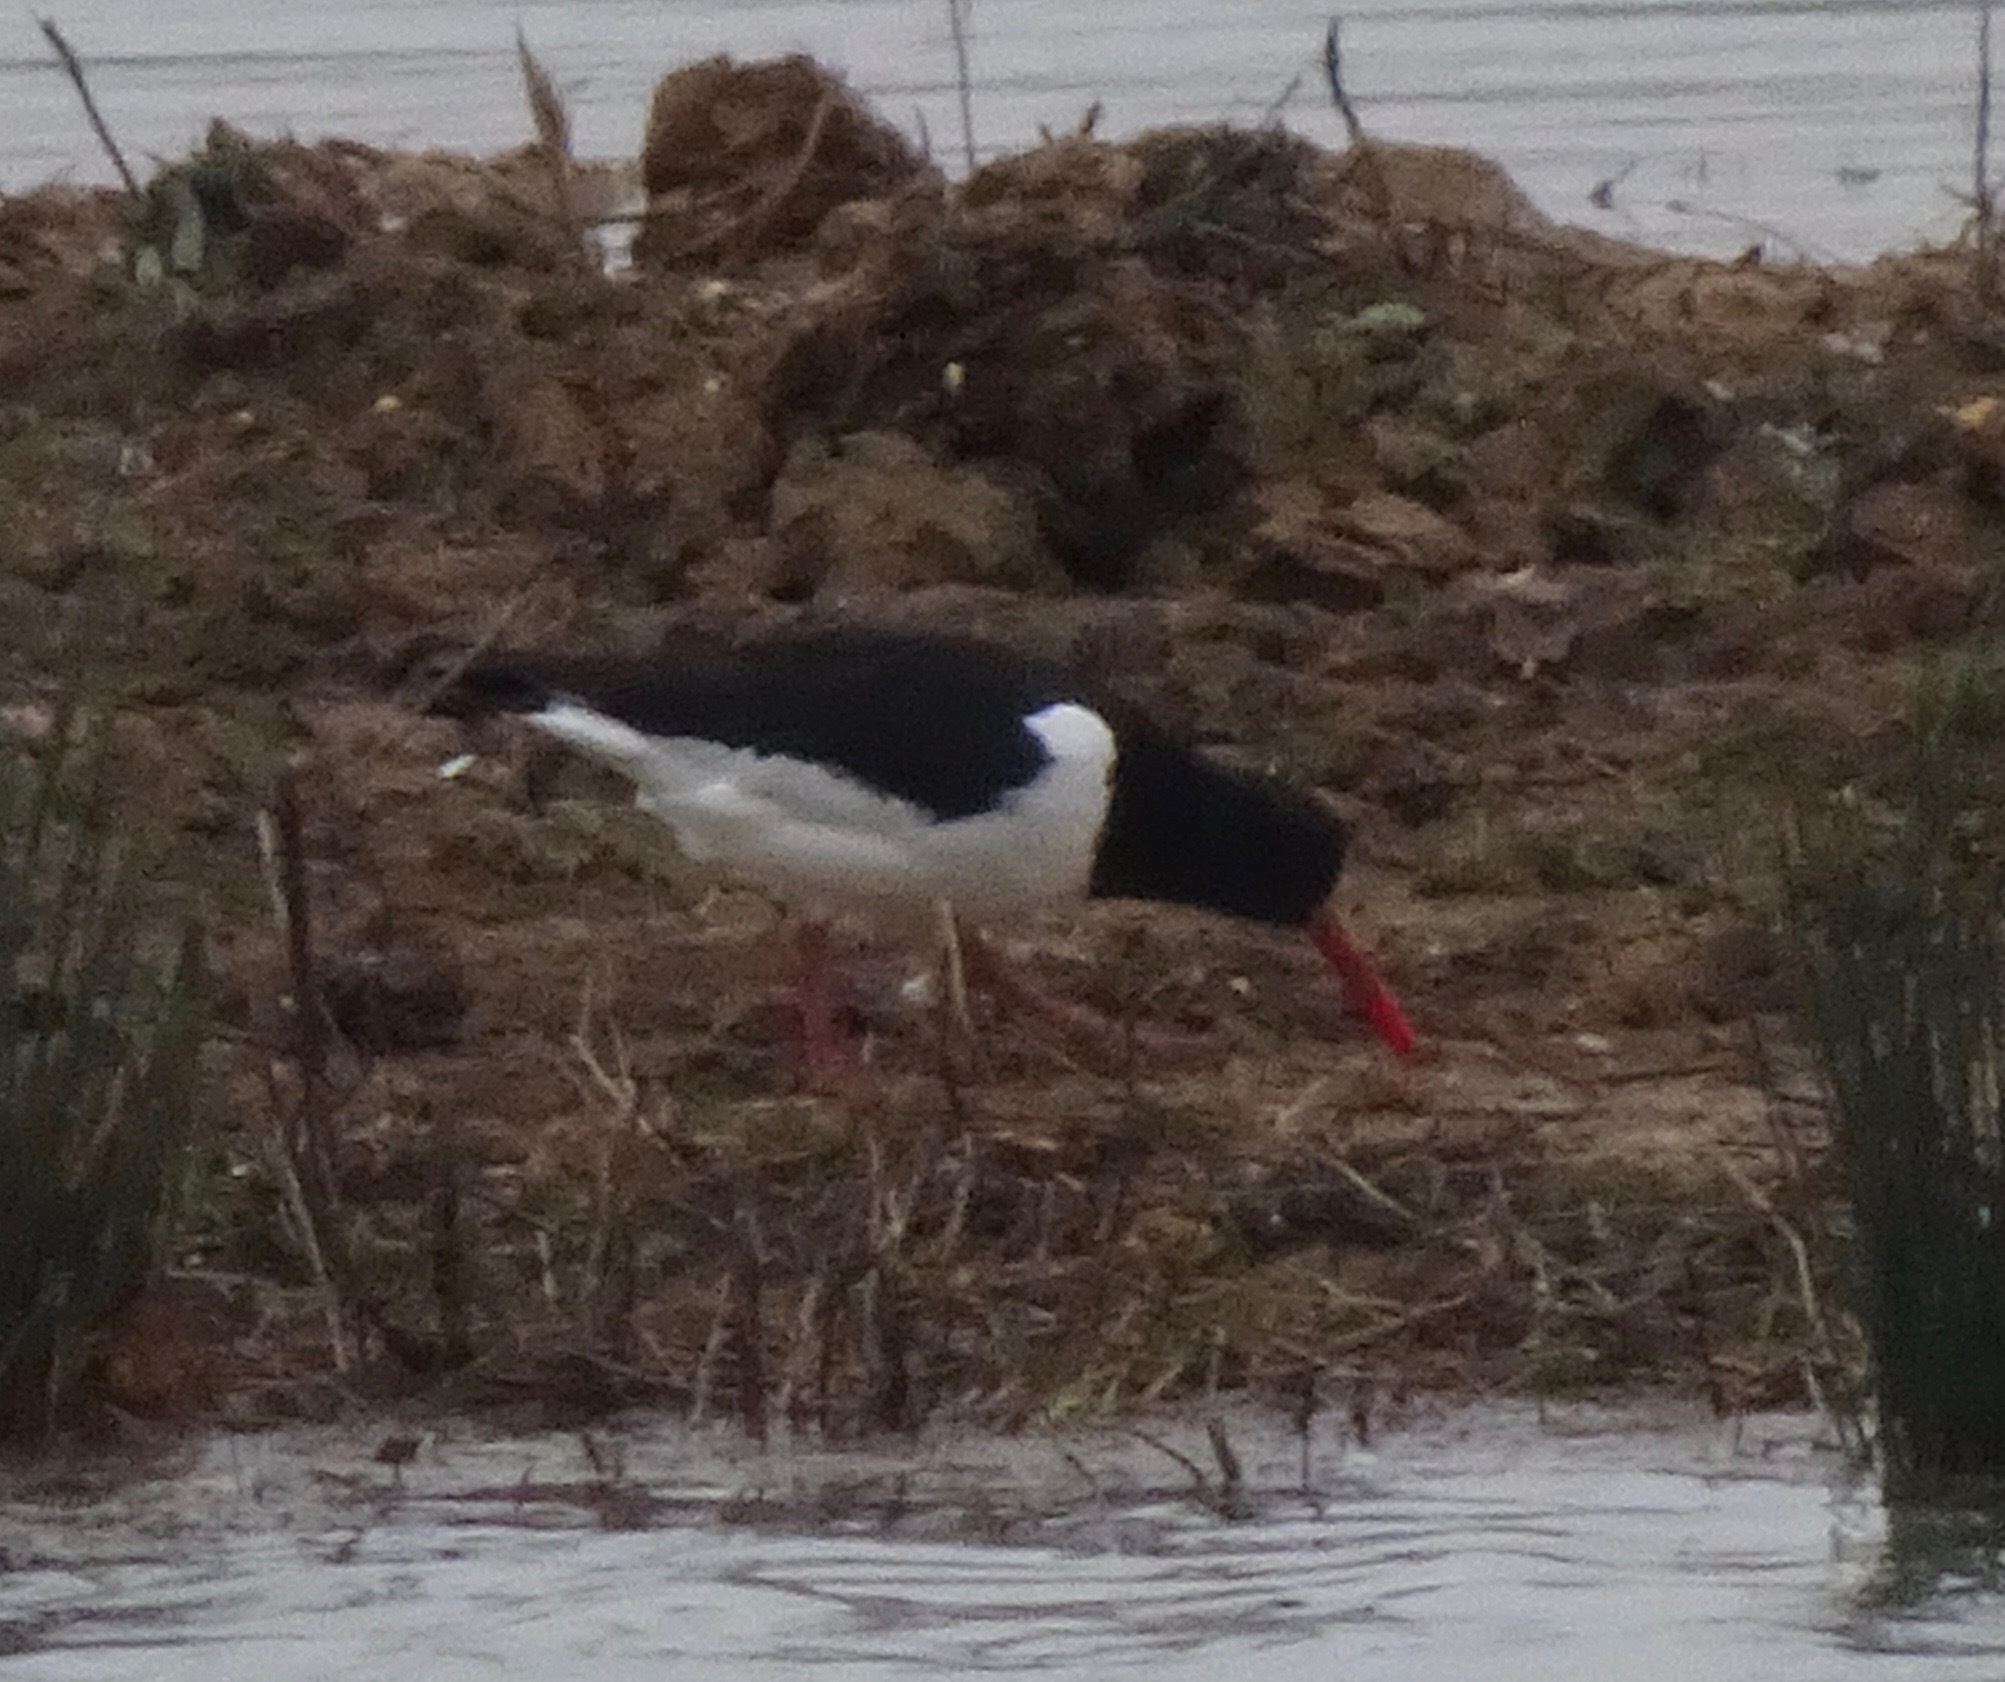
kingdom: Animalia
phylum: Chordata
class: Aves
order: Charadriiformes
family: Haematopodidae
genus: Haematopus
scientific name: Haematopus ostralegus
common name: Eurasian oystercatcher
